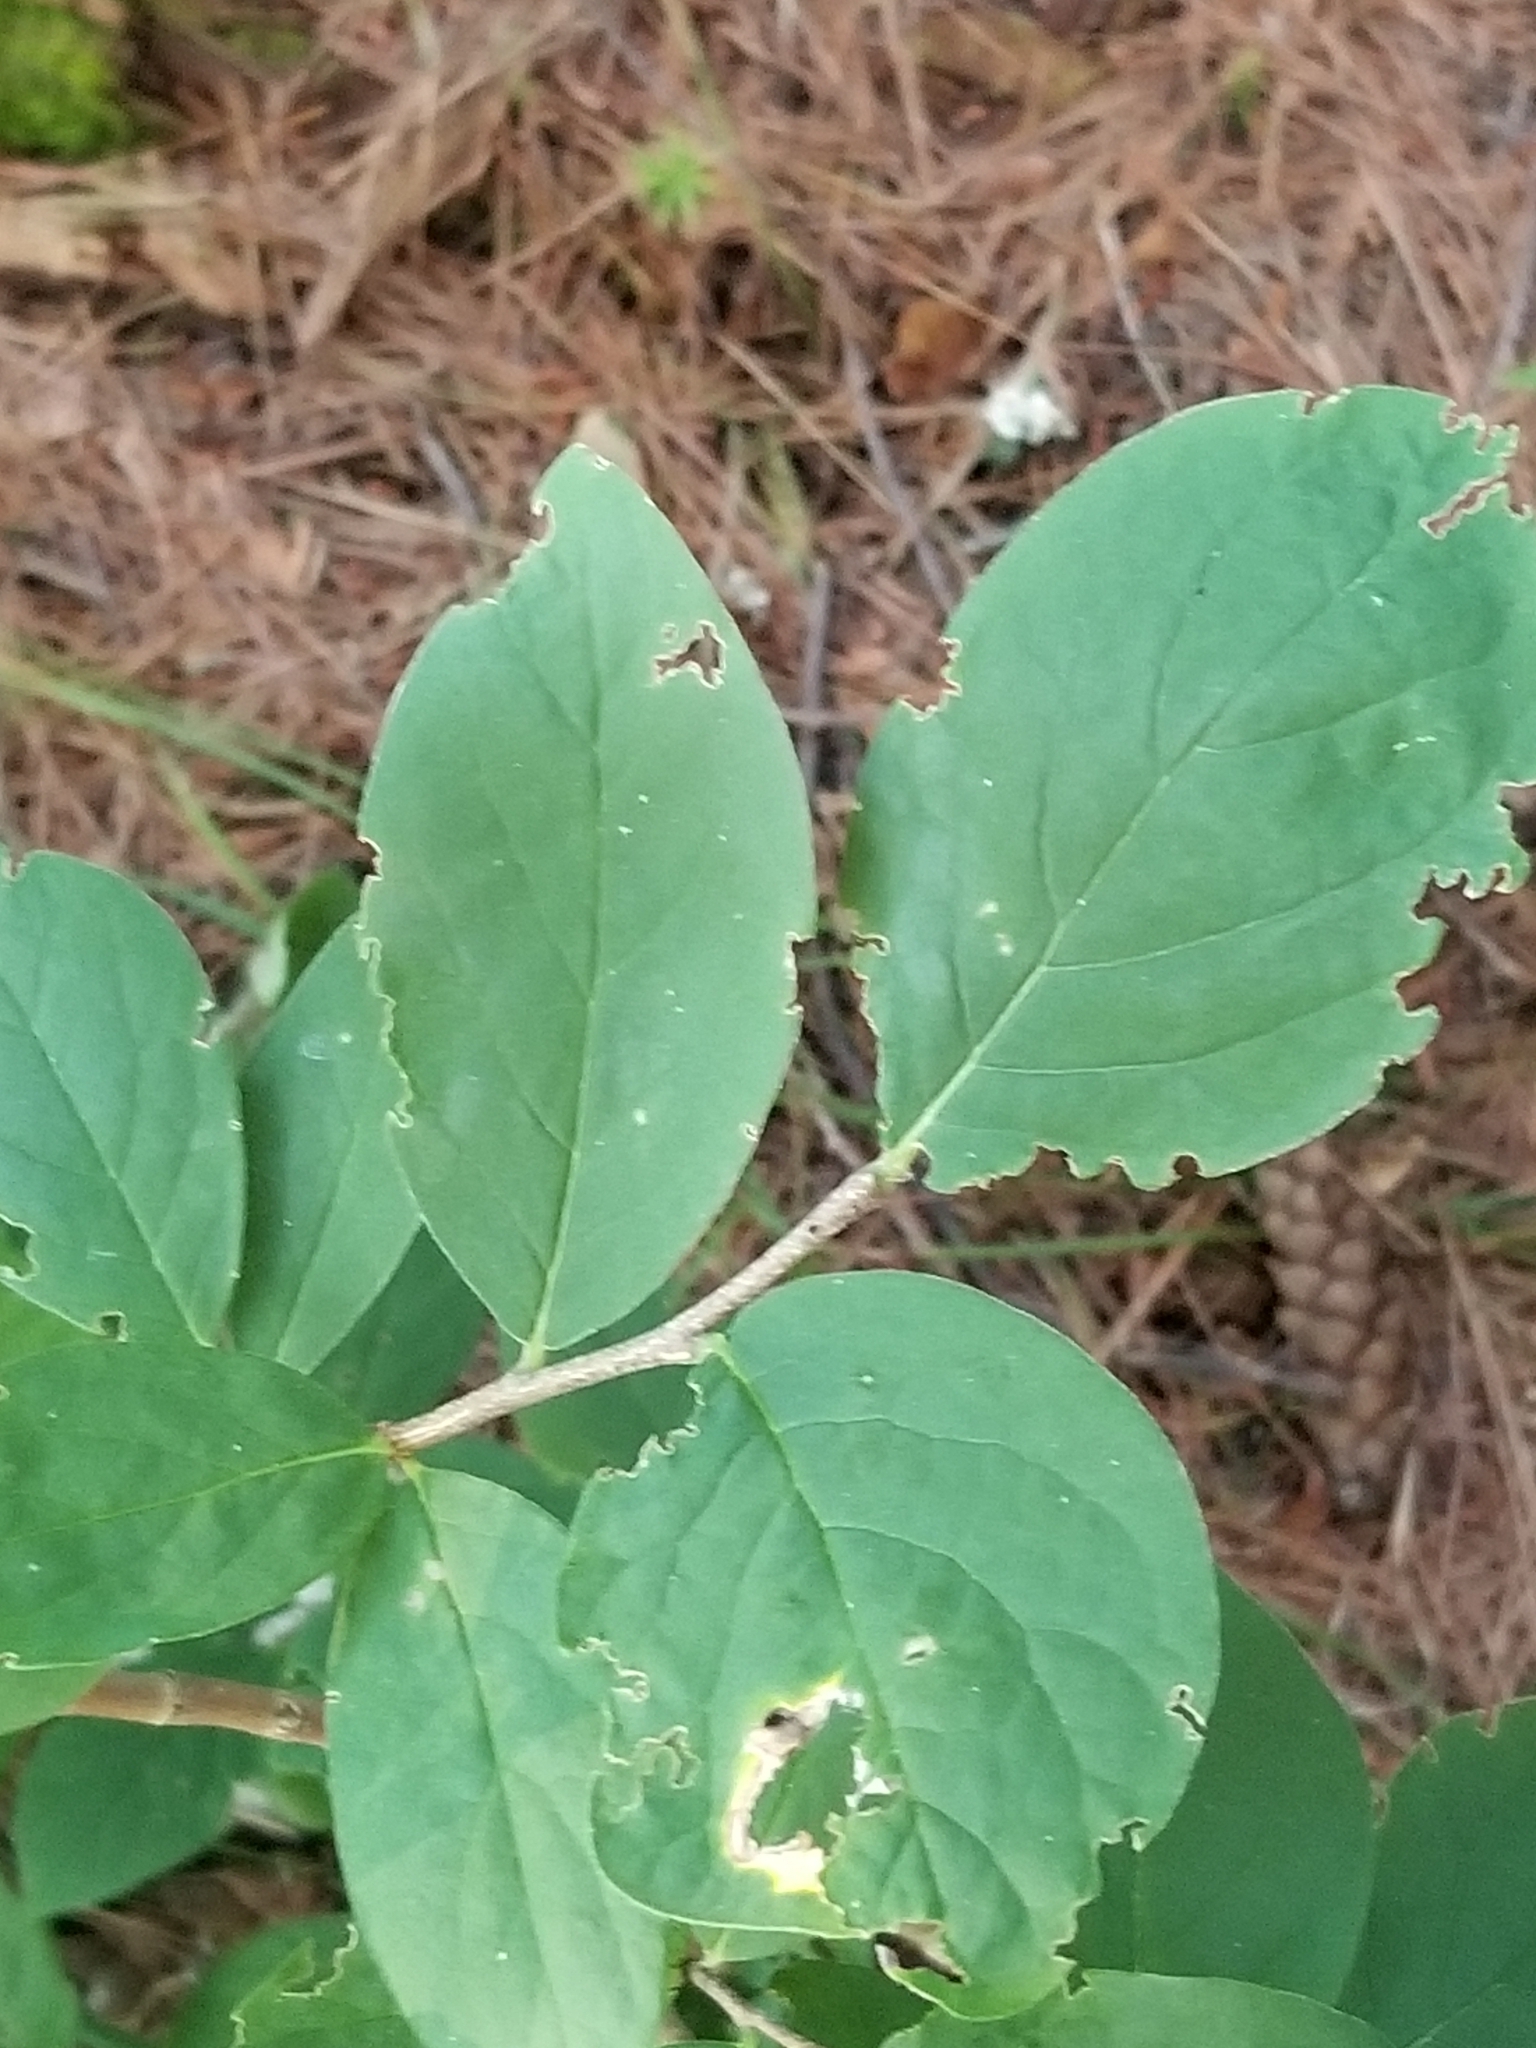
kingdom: Plantae
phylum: Tracheophyta
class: Magnoliopsida
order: Malvales
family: Thymelaeaceae
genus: Dirca
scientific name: Dirca palustris
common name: Leatherwood
